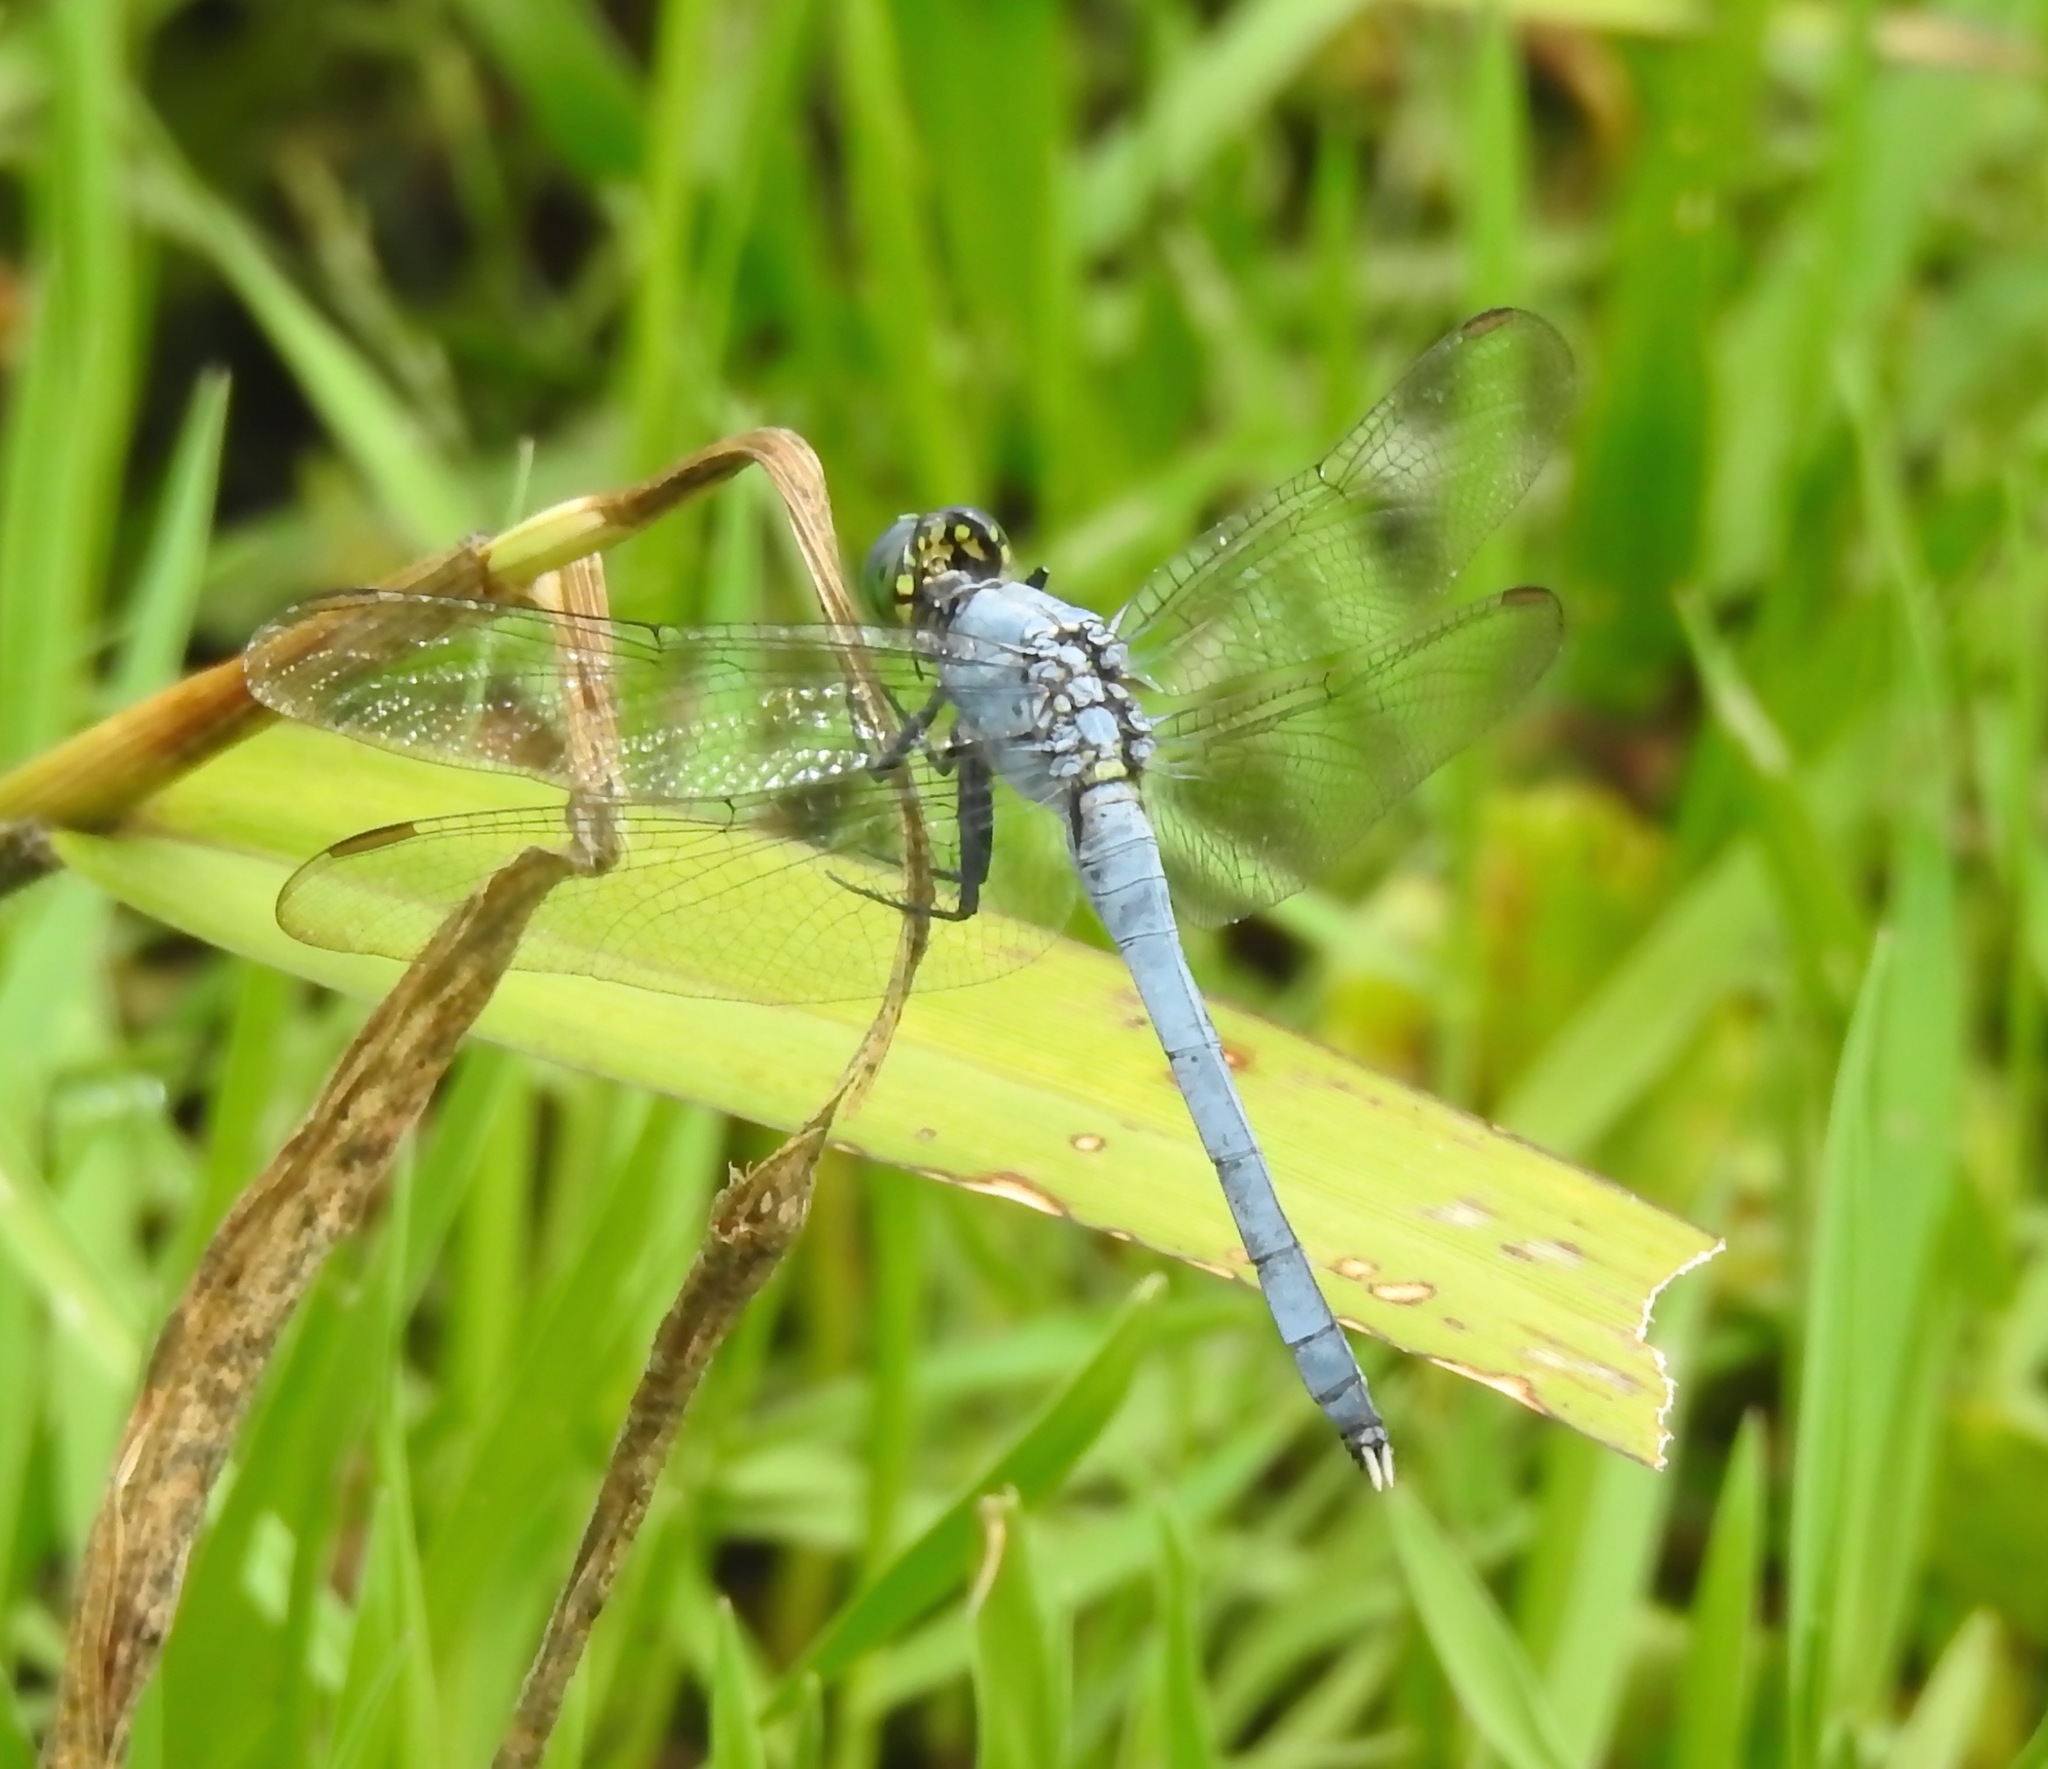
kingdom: Animalia
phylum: Arthropoda
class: Insecta
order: Odonata
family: Libellulidae
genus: Erythemis
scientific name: Erythemis simplicicollis
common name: Eastern pondhawk
